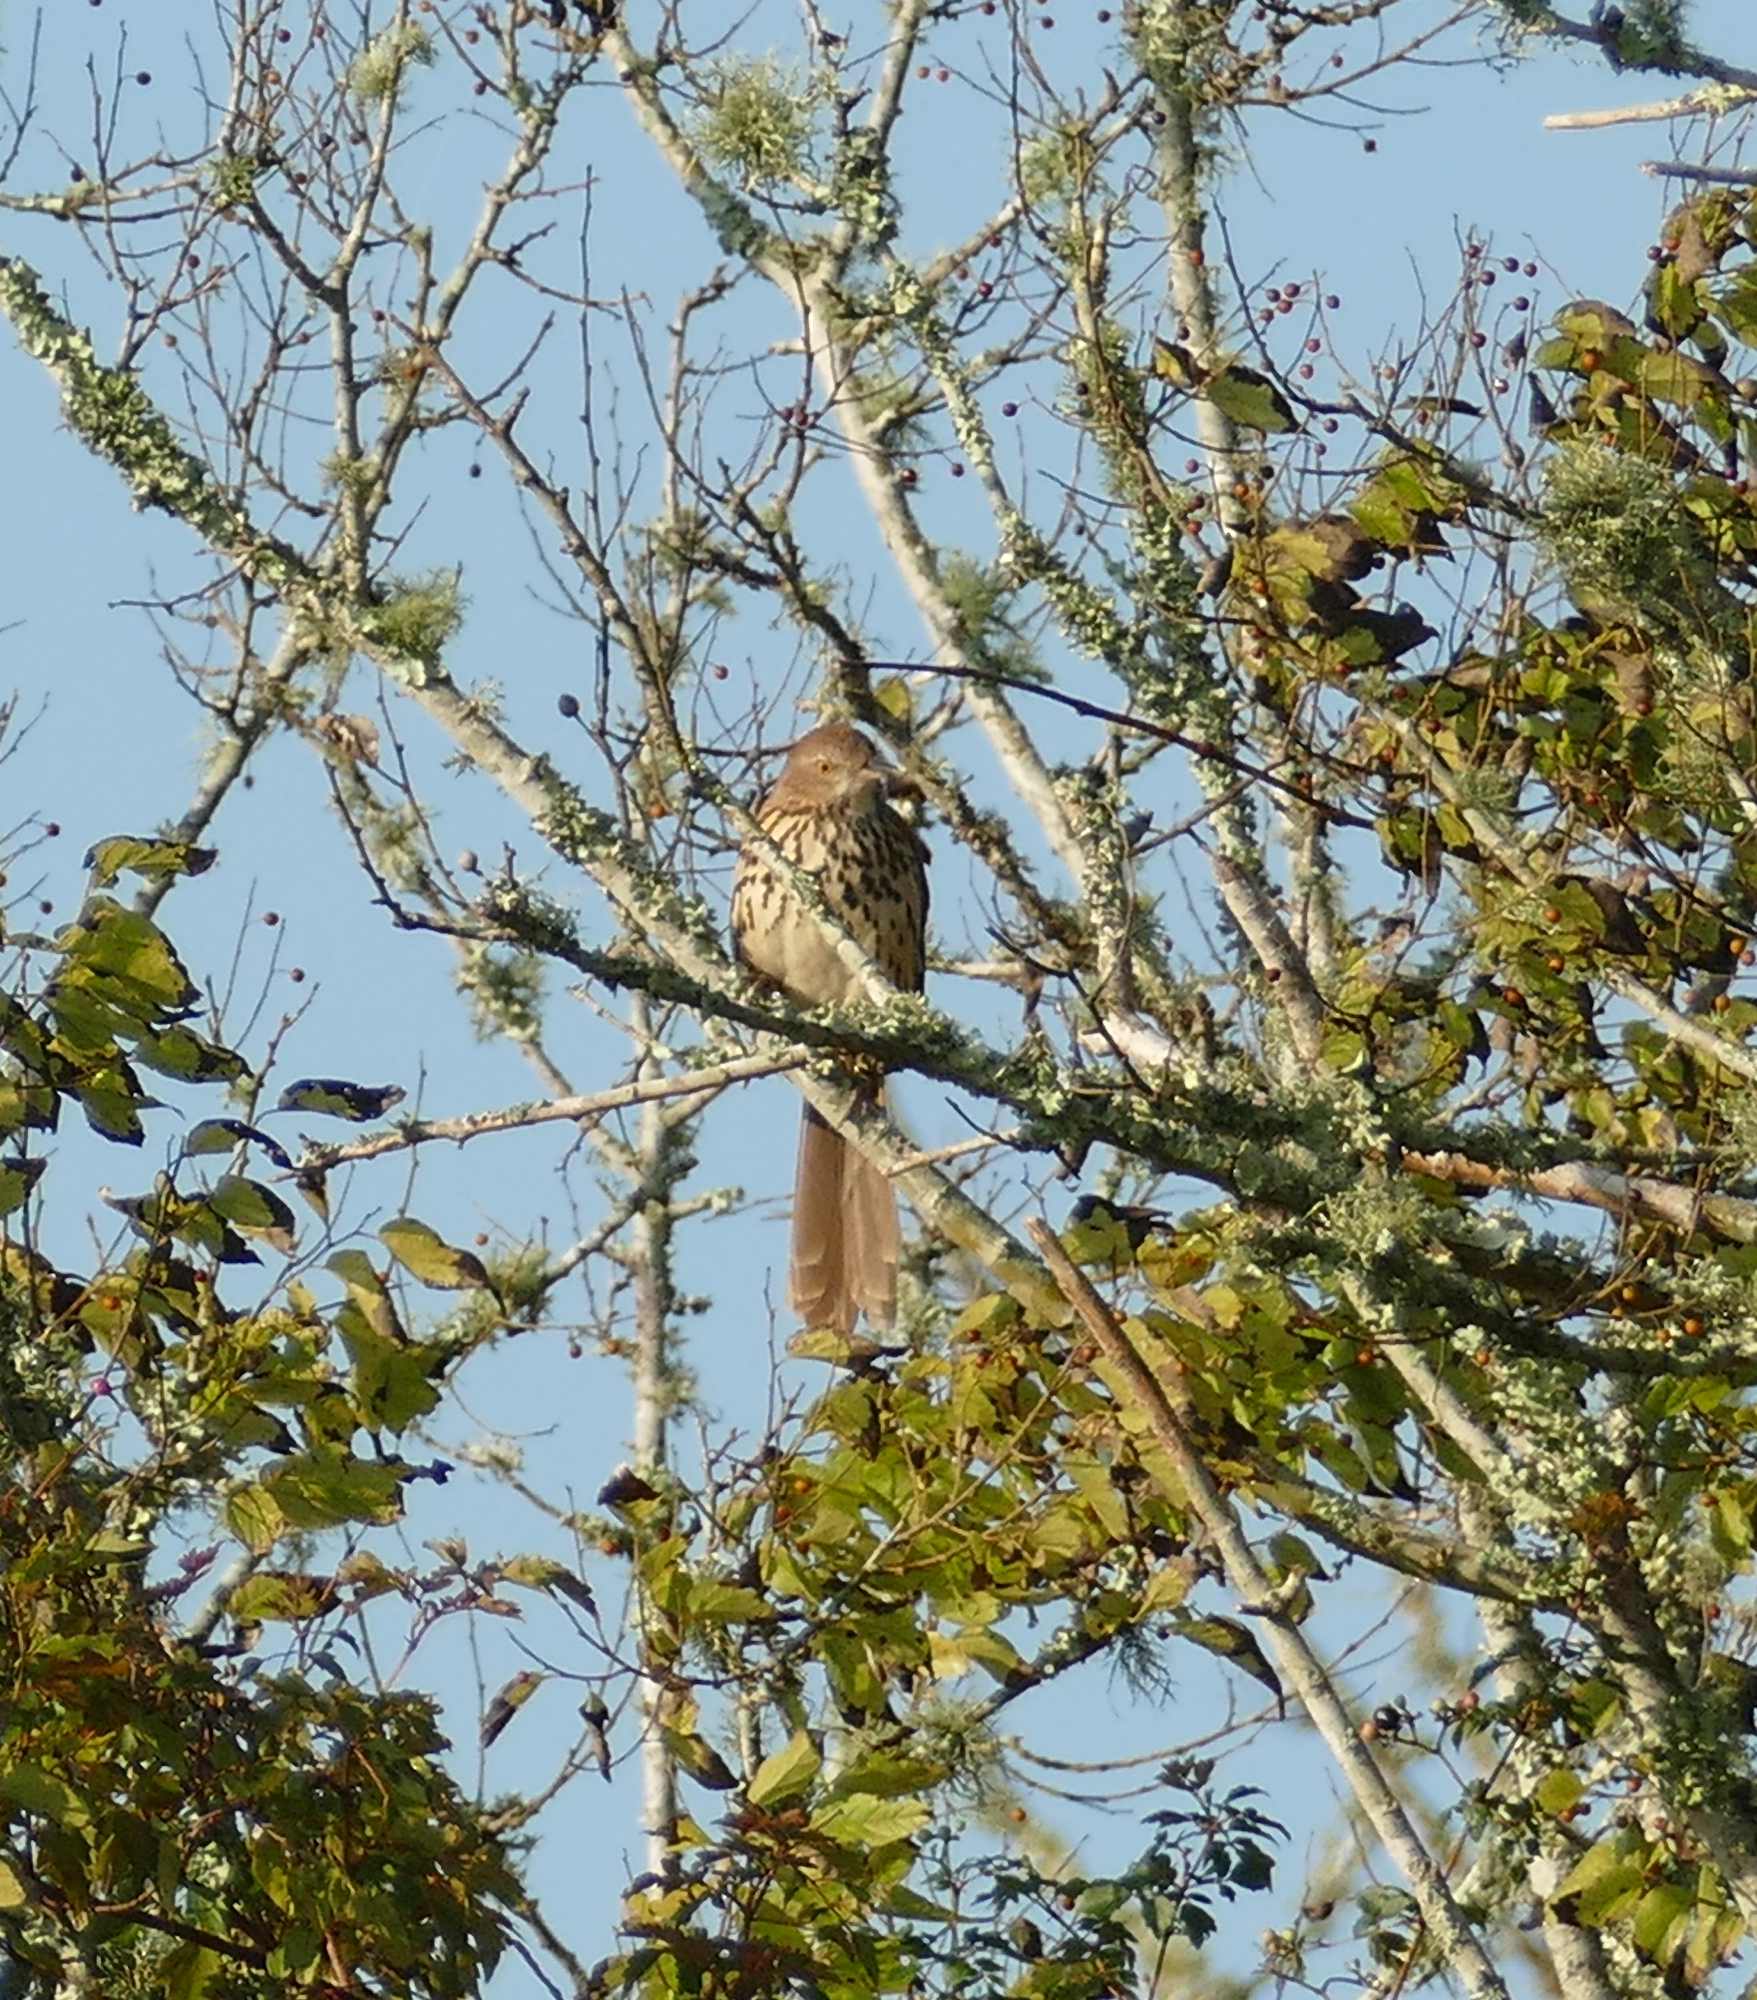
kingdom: Animalia
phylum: Chordata
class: Aves
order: Passeriformes
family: Mimidae
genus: Toxostoma
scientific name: Toxostoma rufum
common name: Brown thrasher
